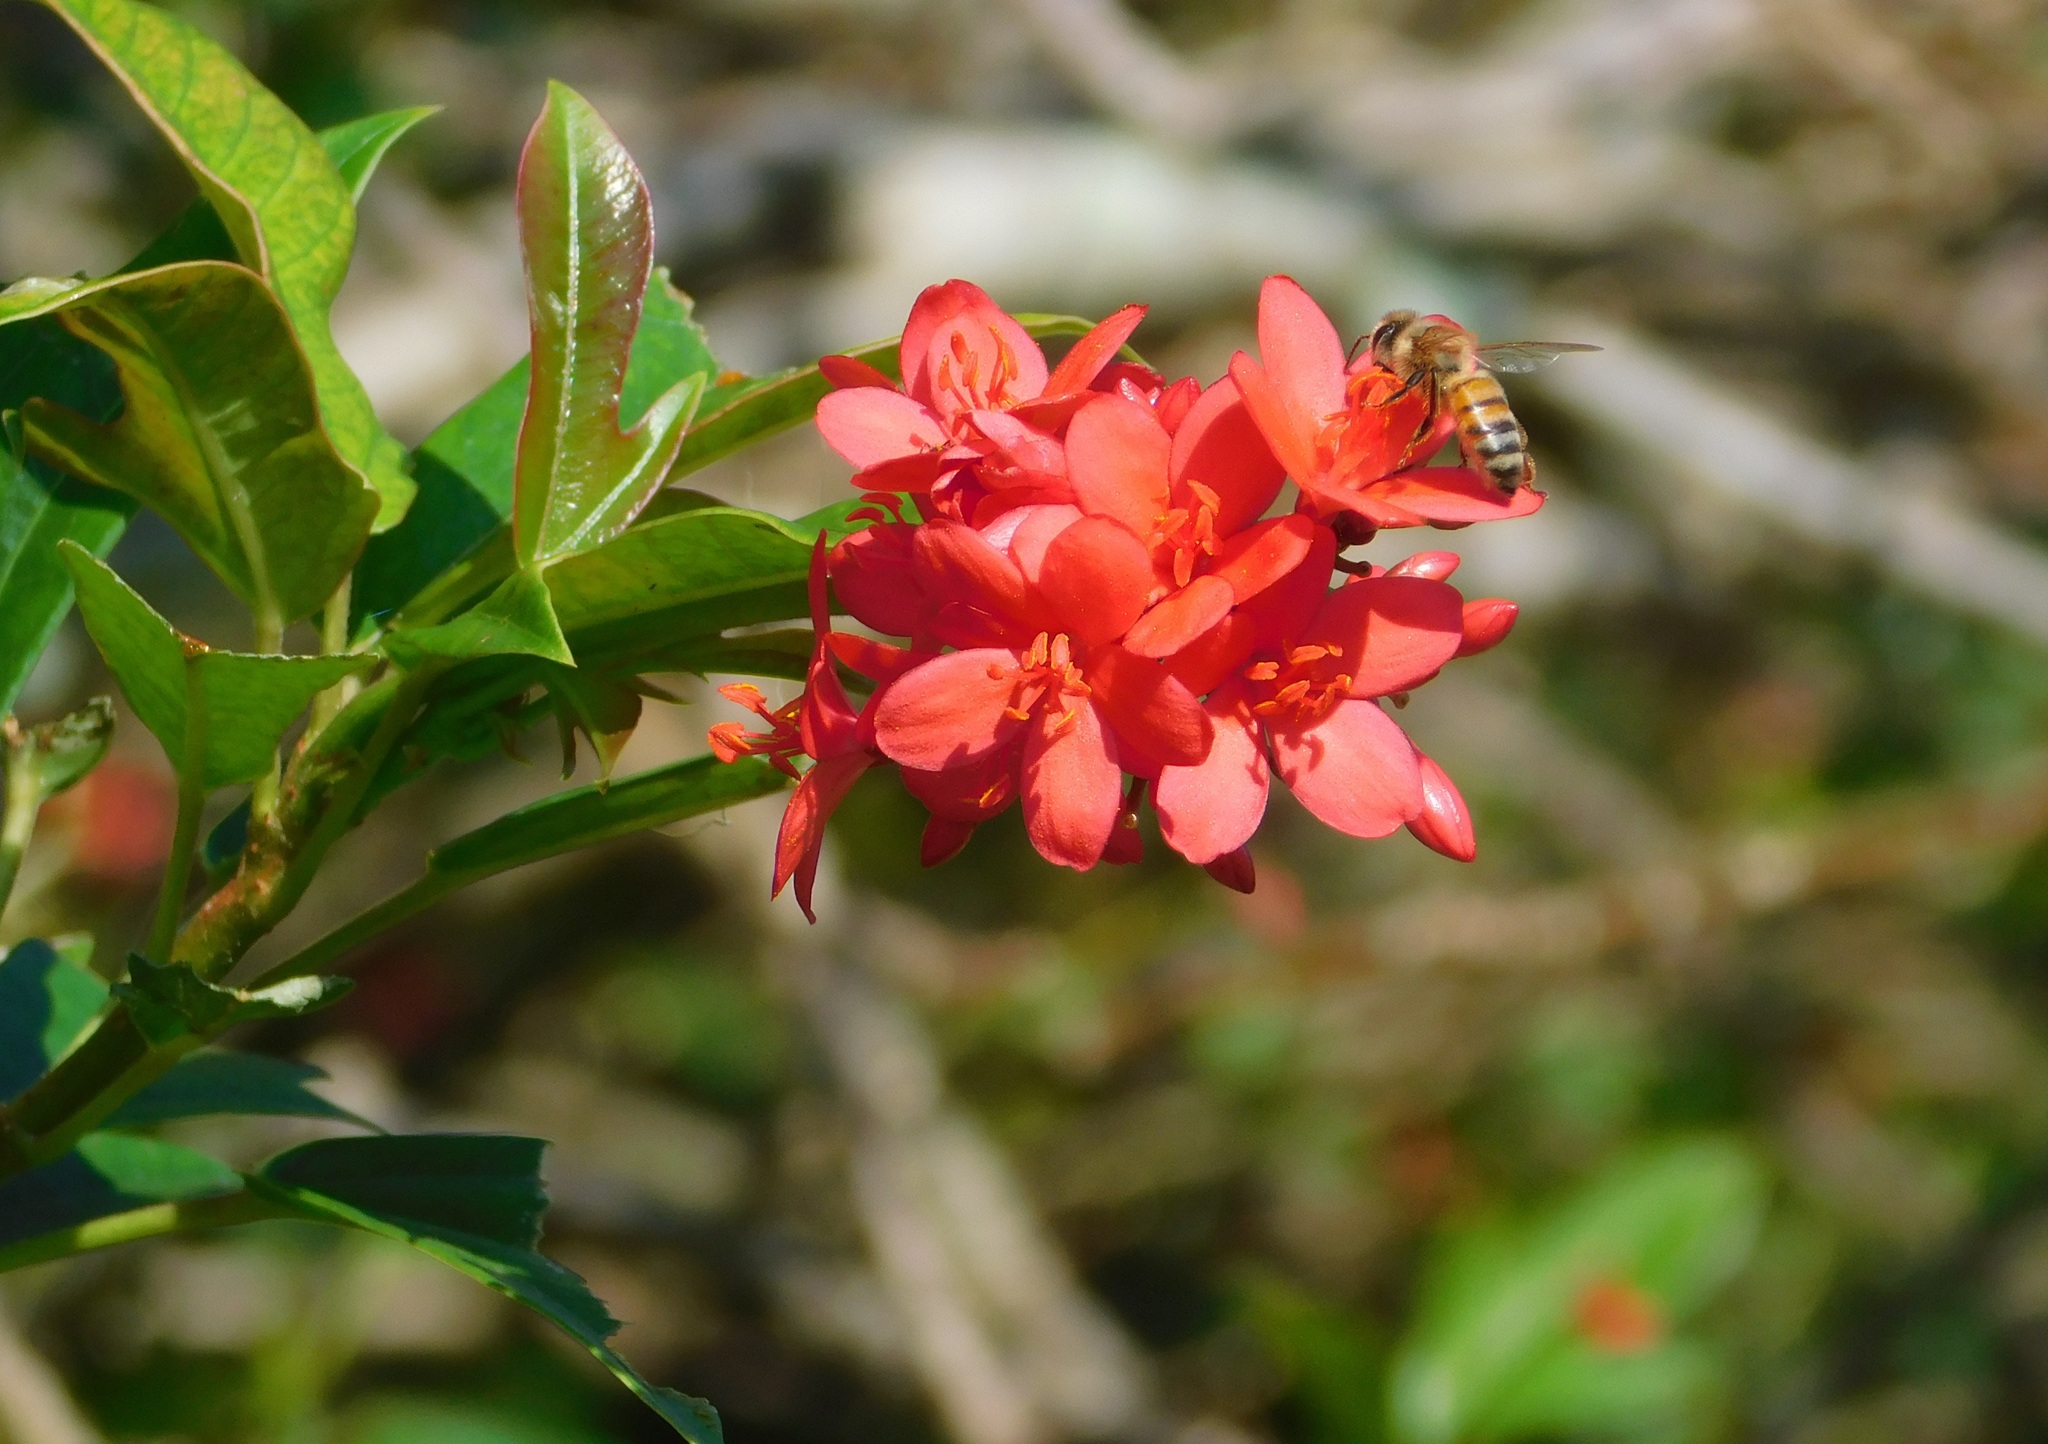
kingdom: Animalia
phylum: Arthropoda
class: Insecta
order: Hymenoptera
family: Apidae
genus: Apis
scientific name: Apis mellifera
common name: Honey bee
